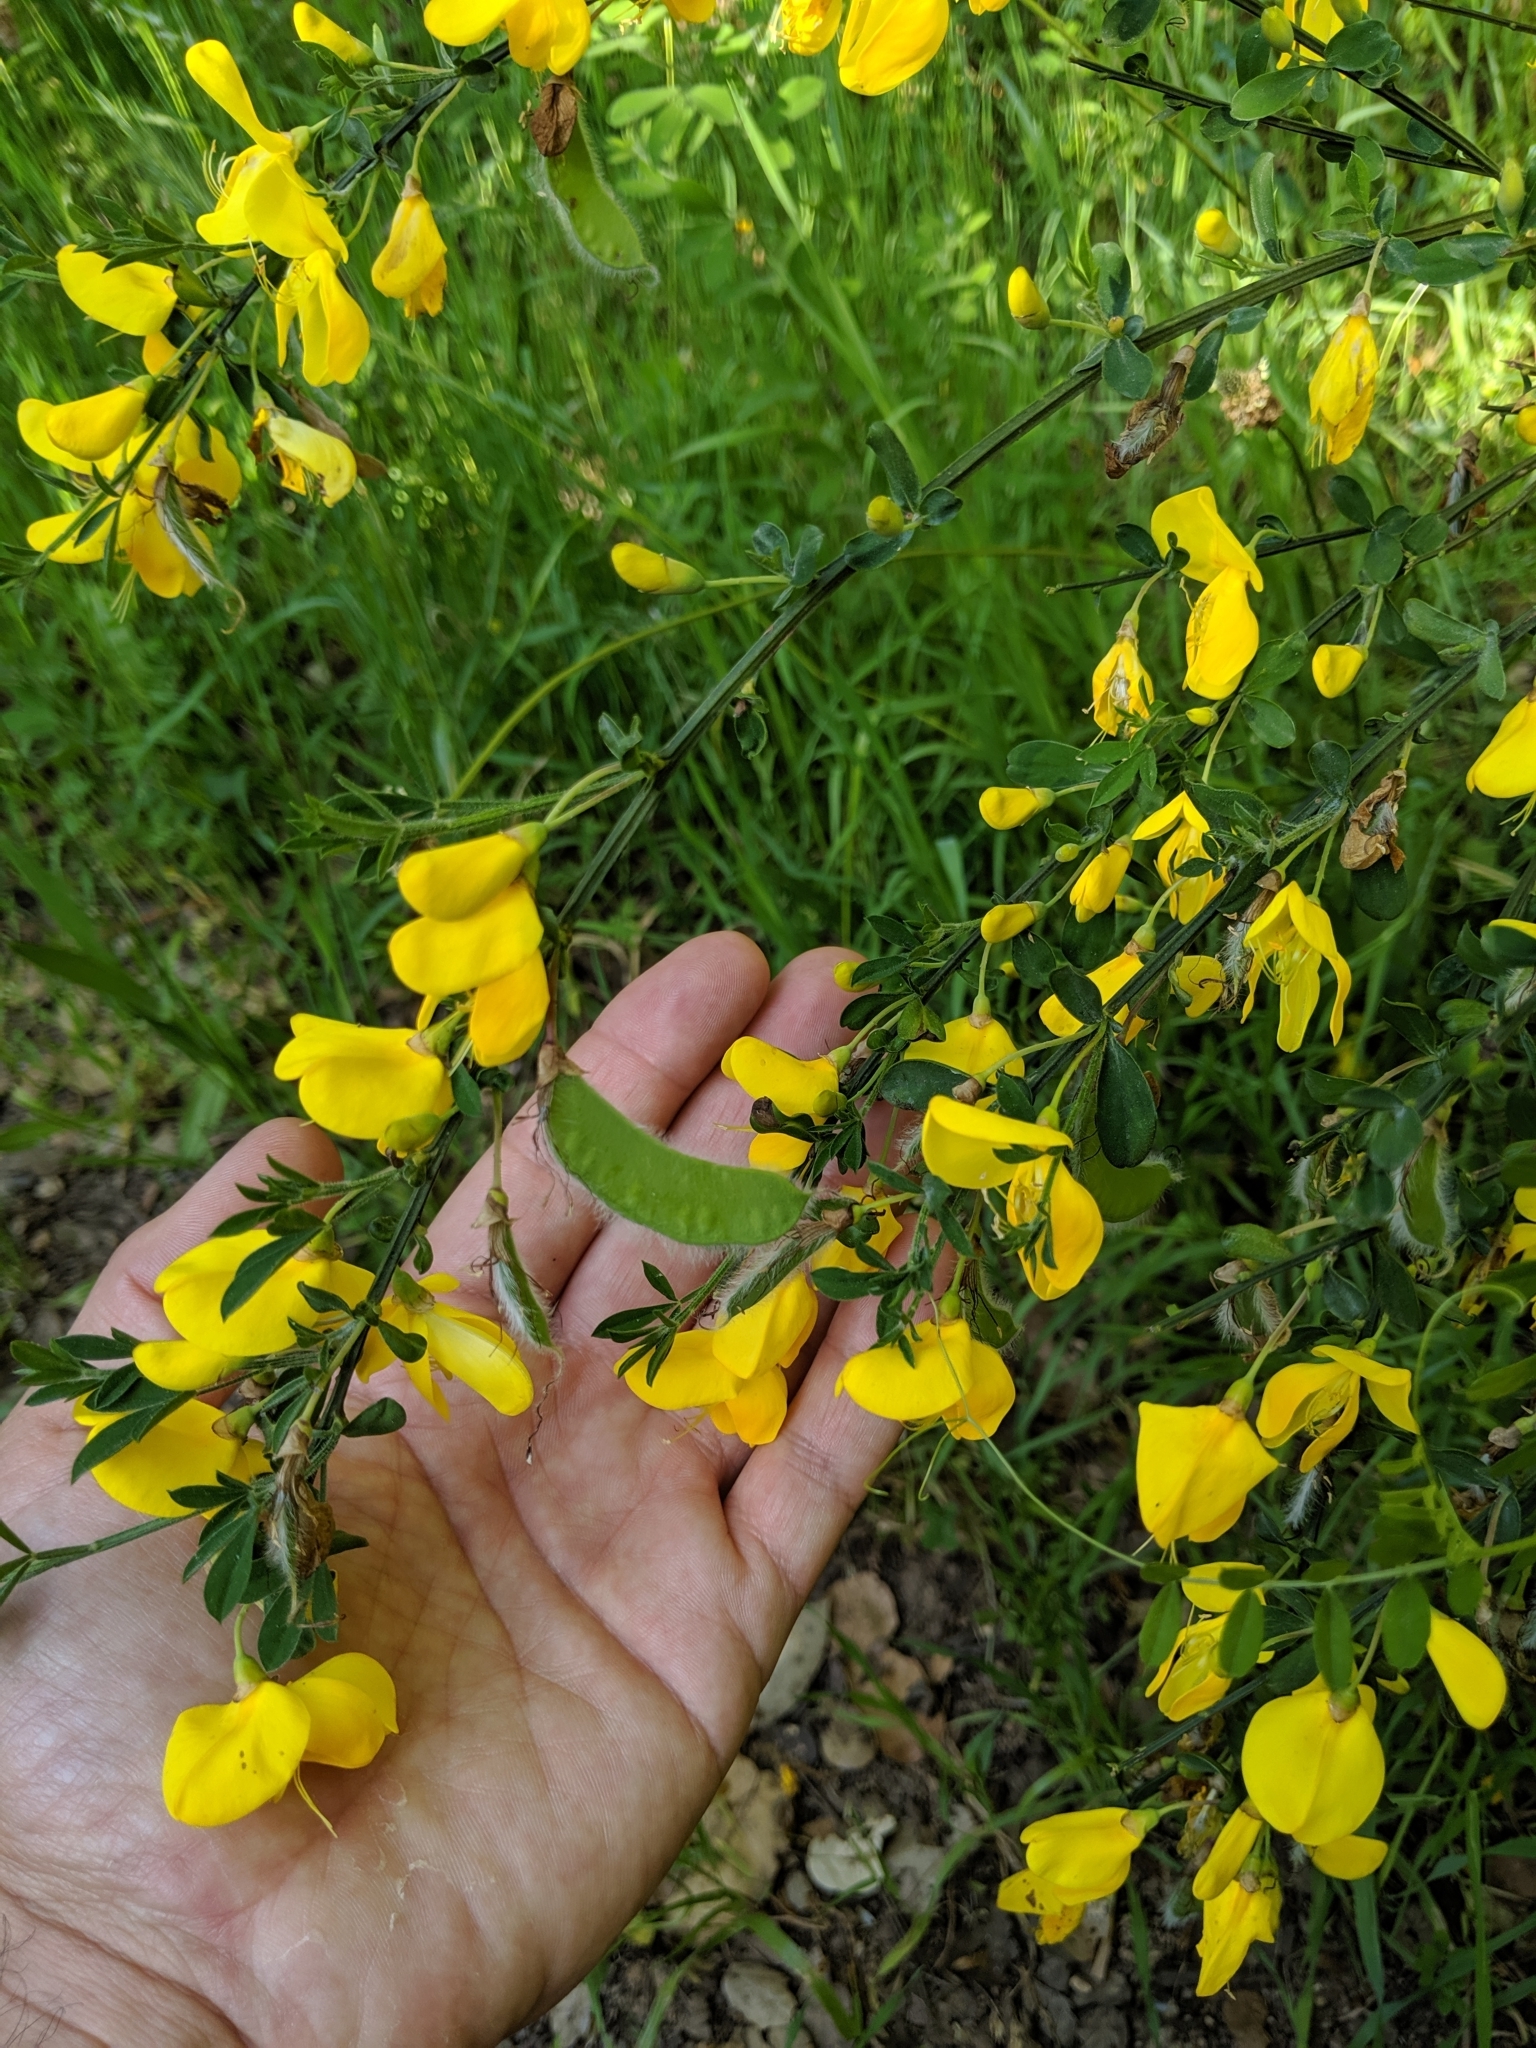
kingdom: Plantae
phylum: Tracheophyta
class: Magnoliopsida
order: Fabales
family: Fabaceae
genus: Cytisus
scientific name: Cytisus scoparius
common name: Scotch broom
